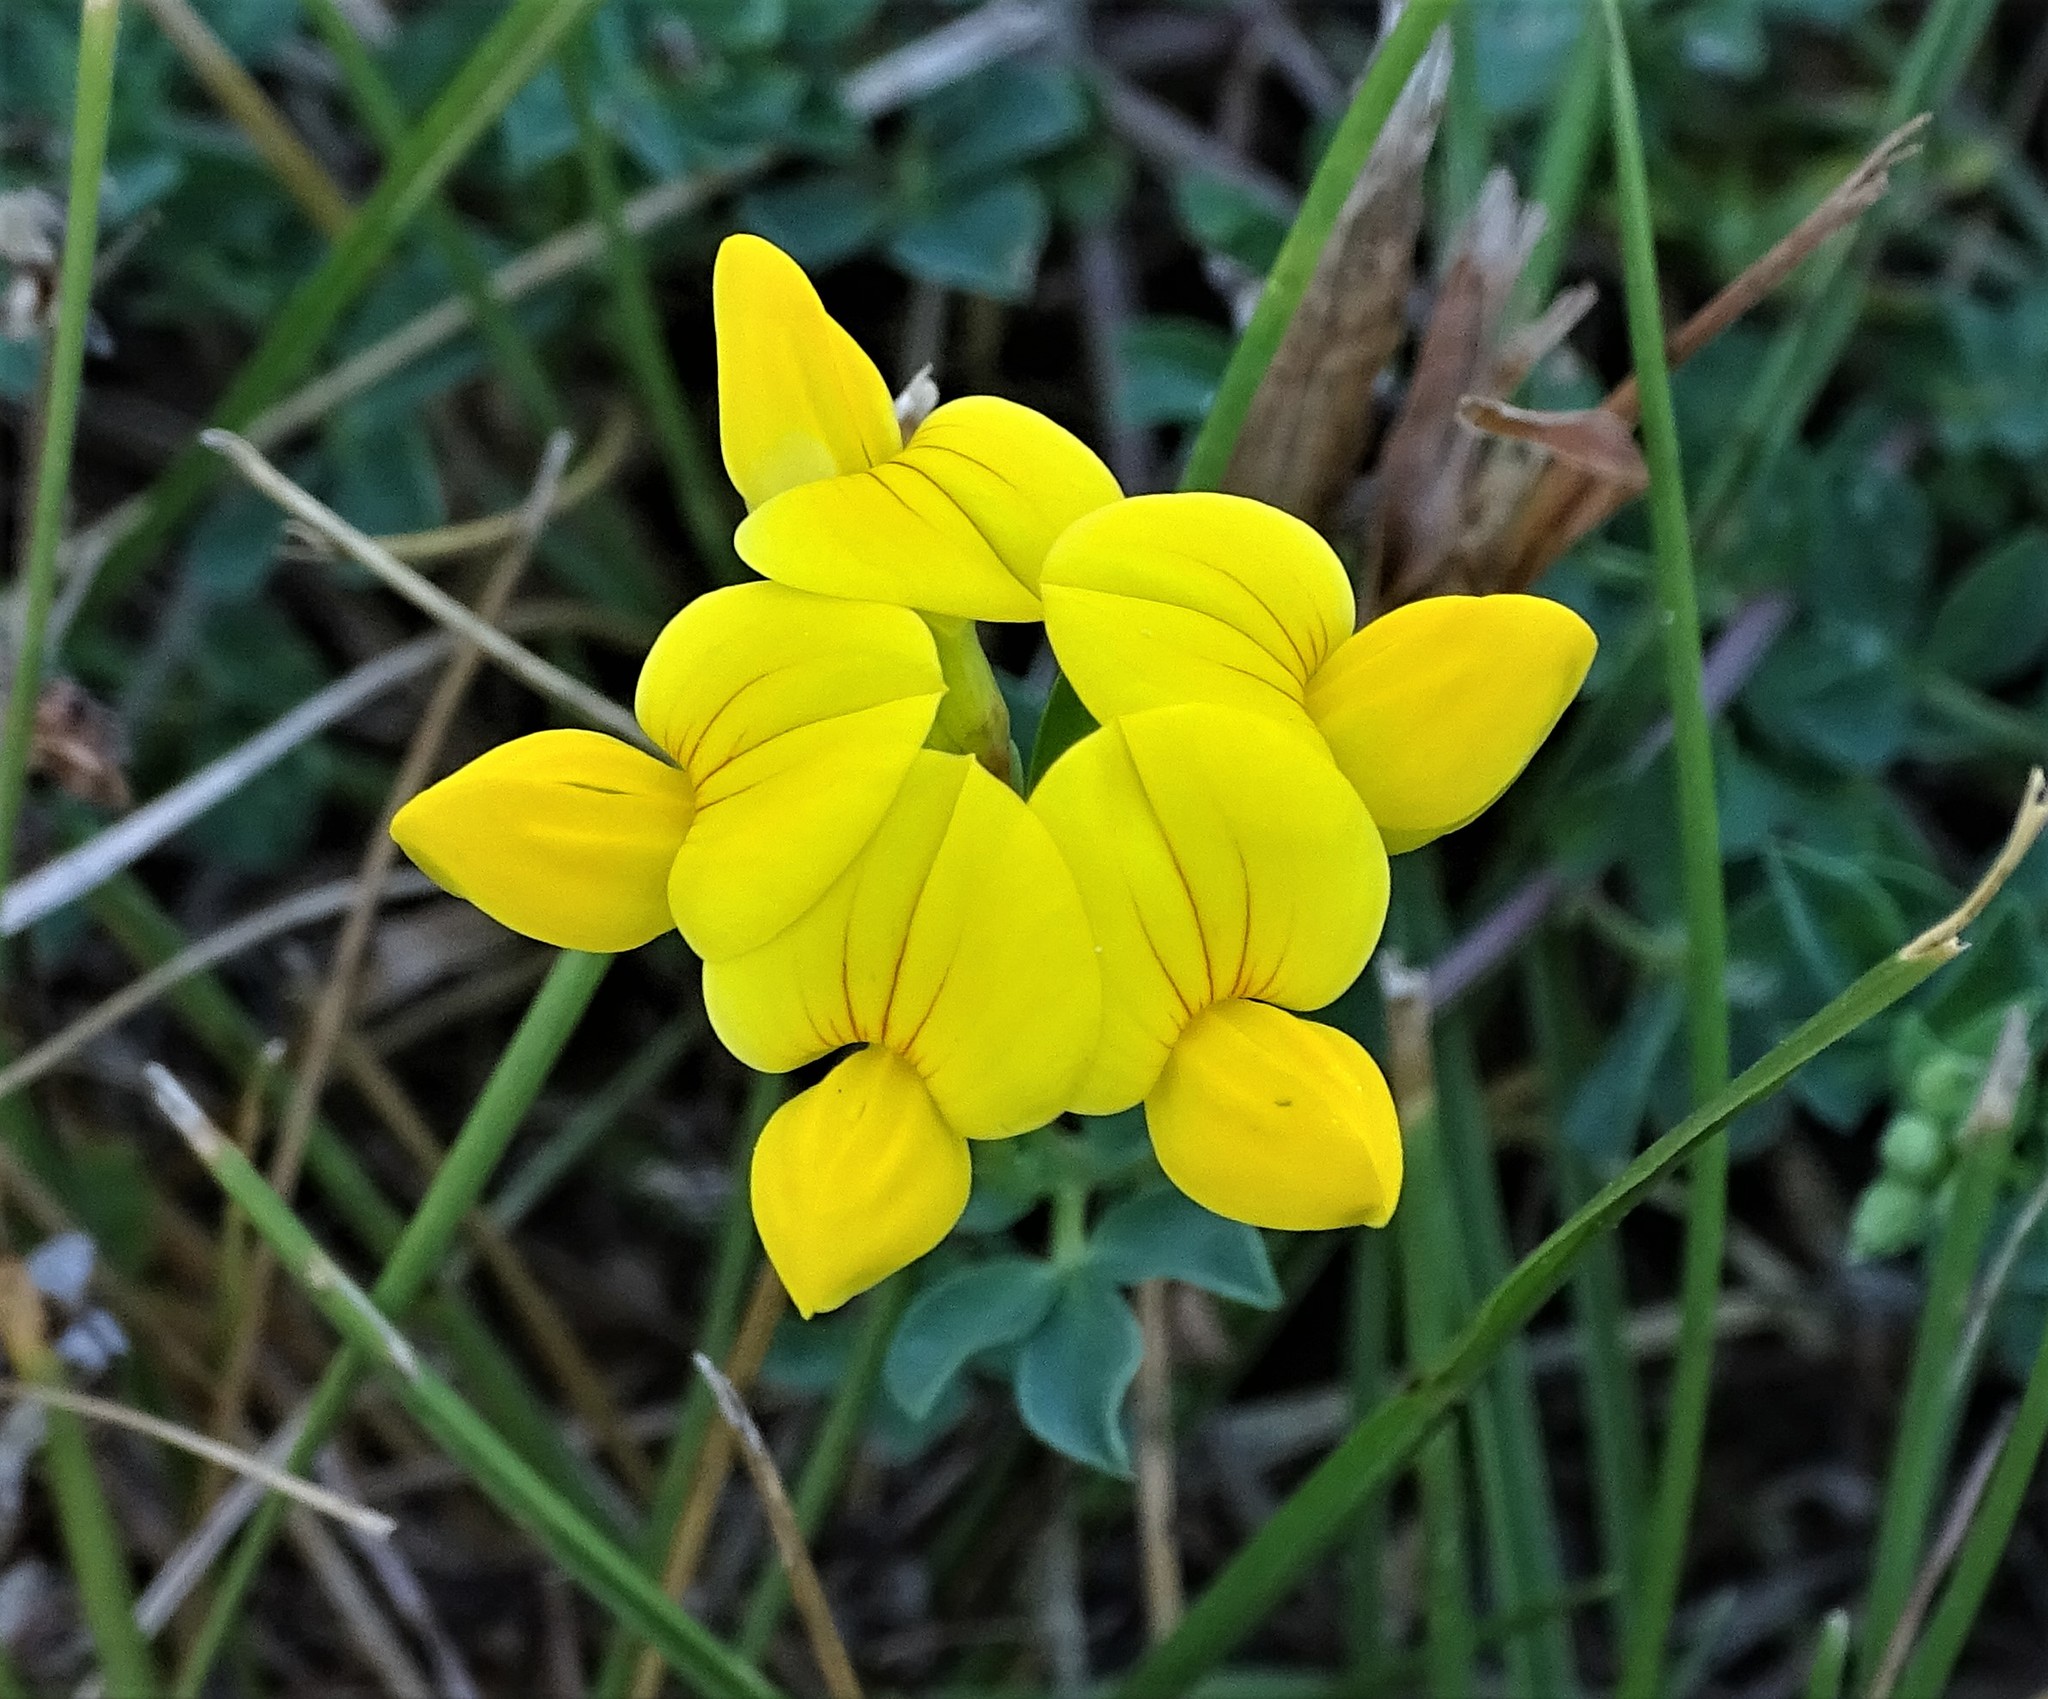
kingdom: Plantae
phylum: Tracheophyta
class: Magnoliopsida
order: Fabales
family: Fabaceae
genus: Lotus
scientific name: Lotus corniculatus
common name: Common bird's-foot-trefoil
